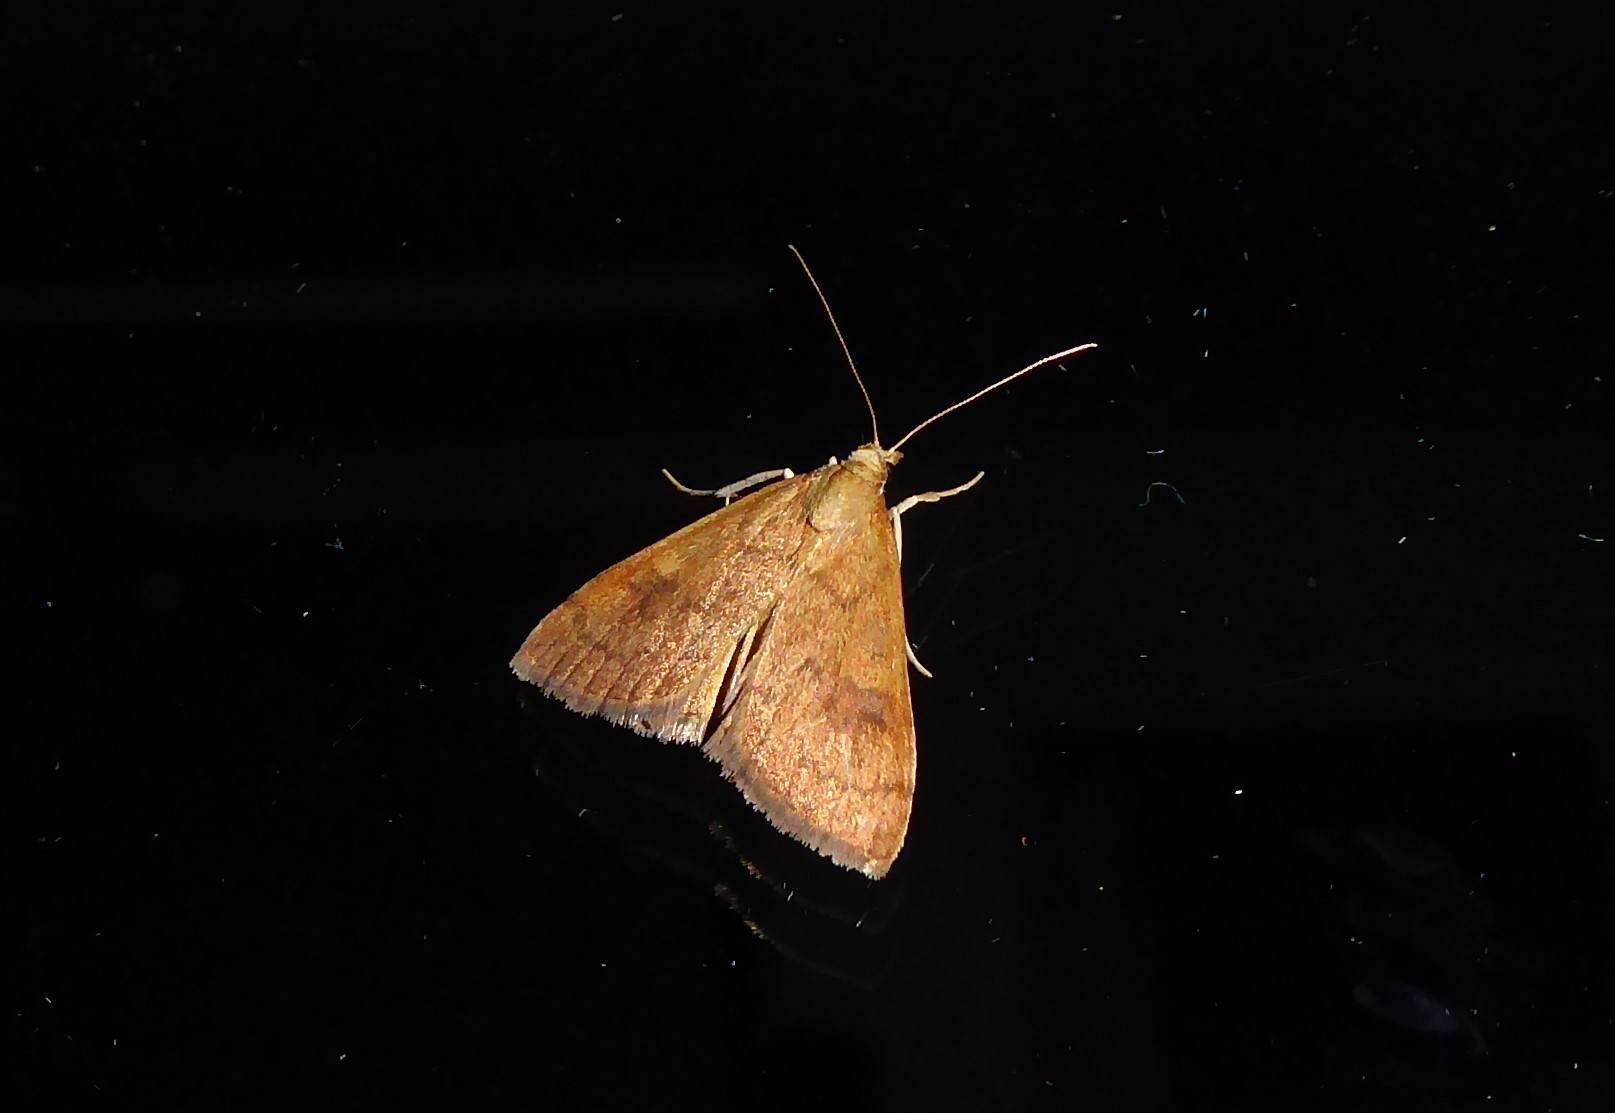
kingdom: Animalia
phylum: Arthropoda
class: Insecta
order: Lepidoptera
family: Crambidae
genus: Udea
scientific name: Udea Mnesictena flavidalis
